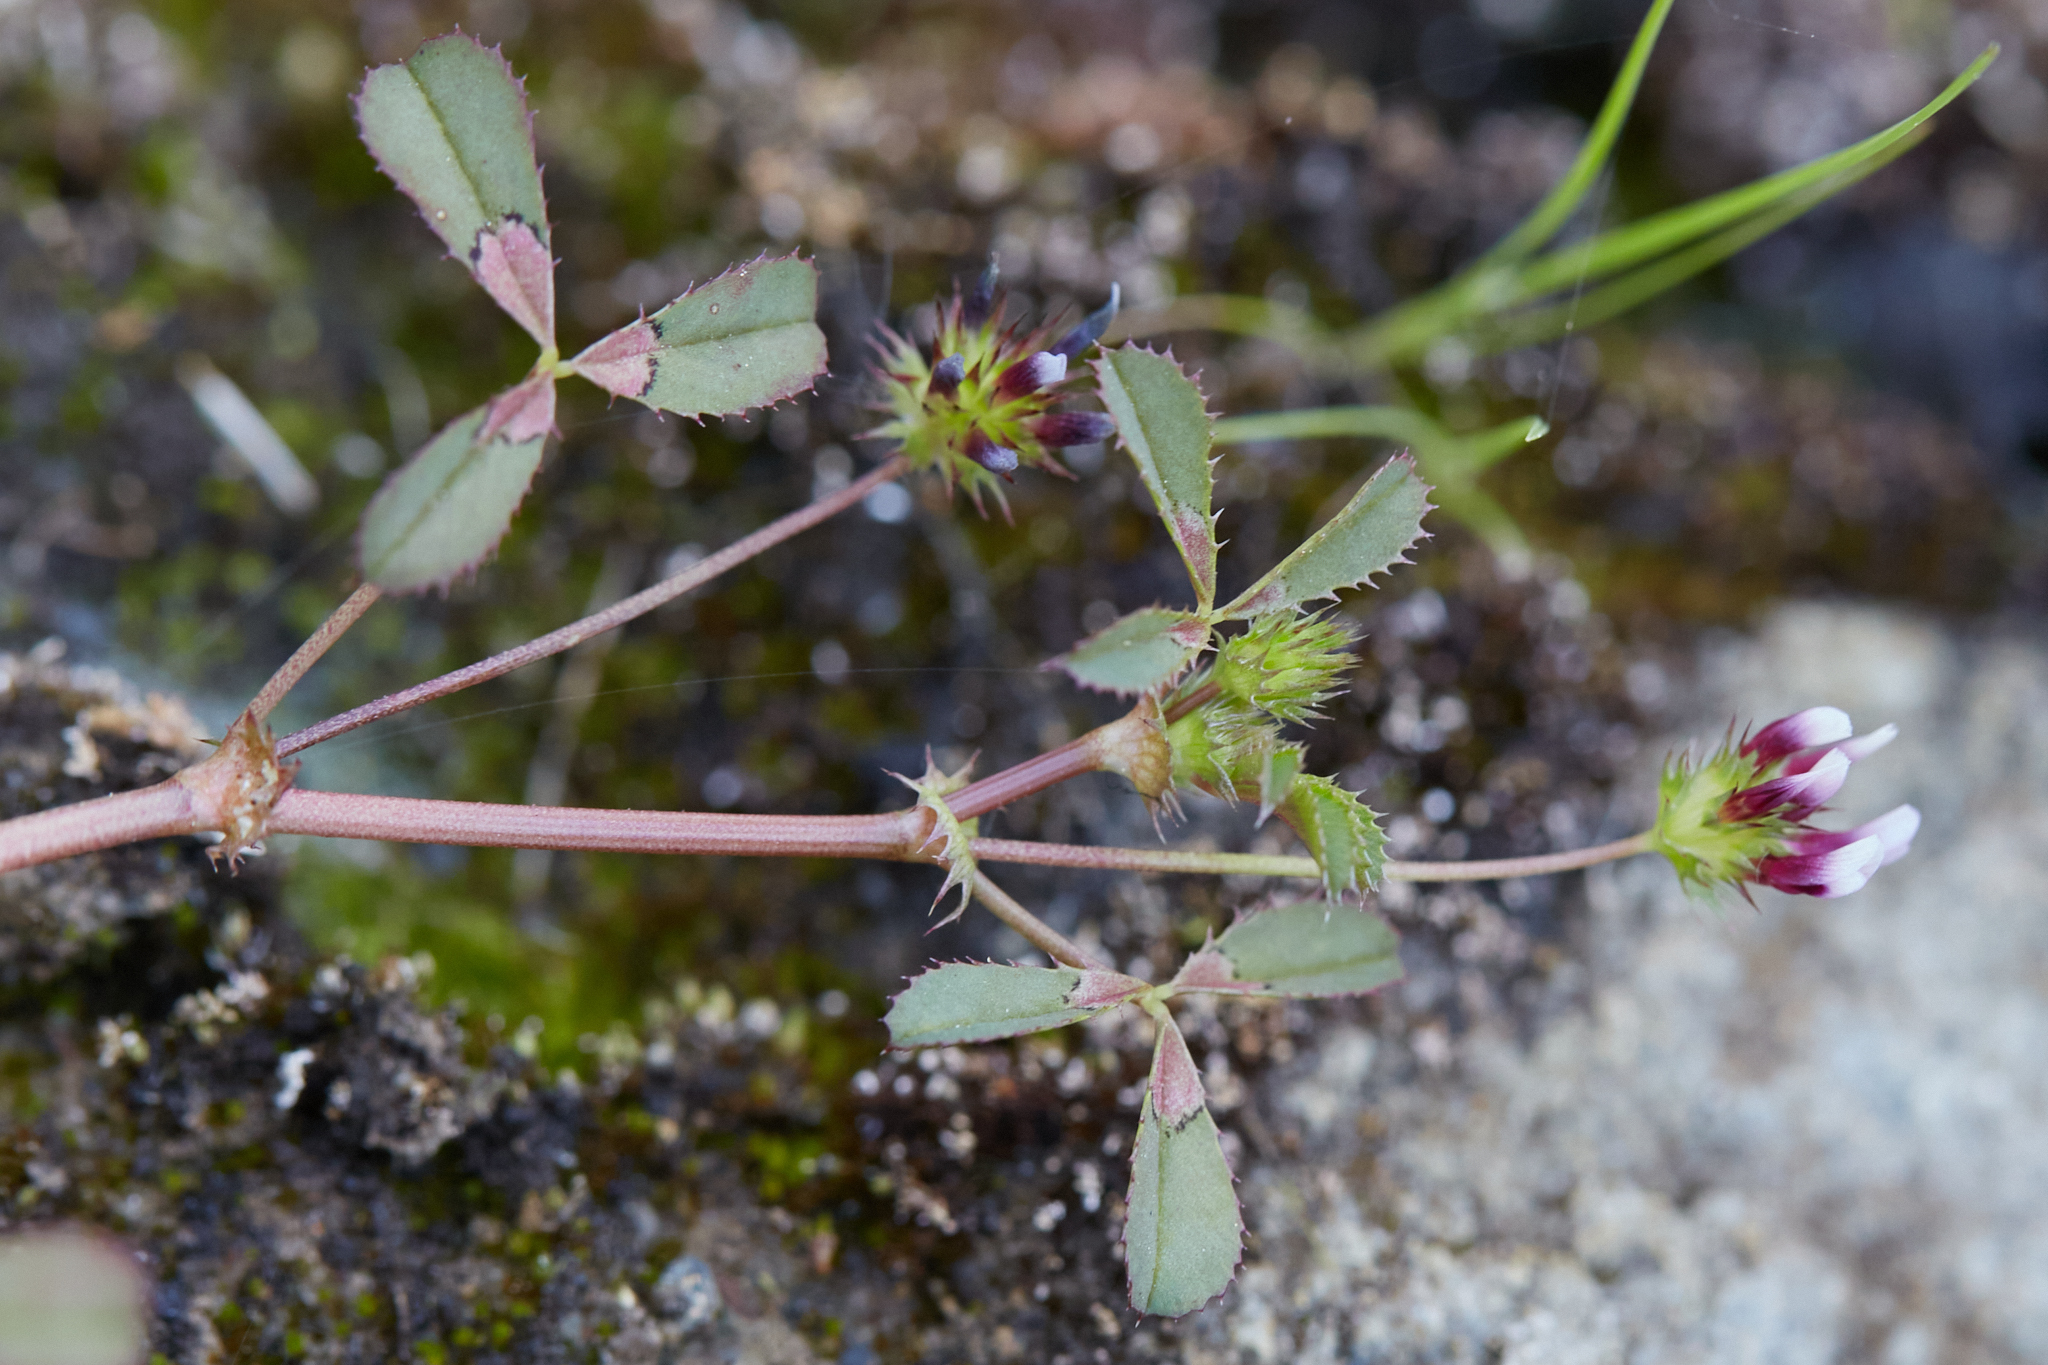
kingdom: Plantae
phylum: Tracheophyta
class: Magnoliopsida
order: Fabales
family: Fabaceae
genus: Trifolium
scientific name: Trifolium variegatum
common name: Whitetip clover
